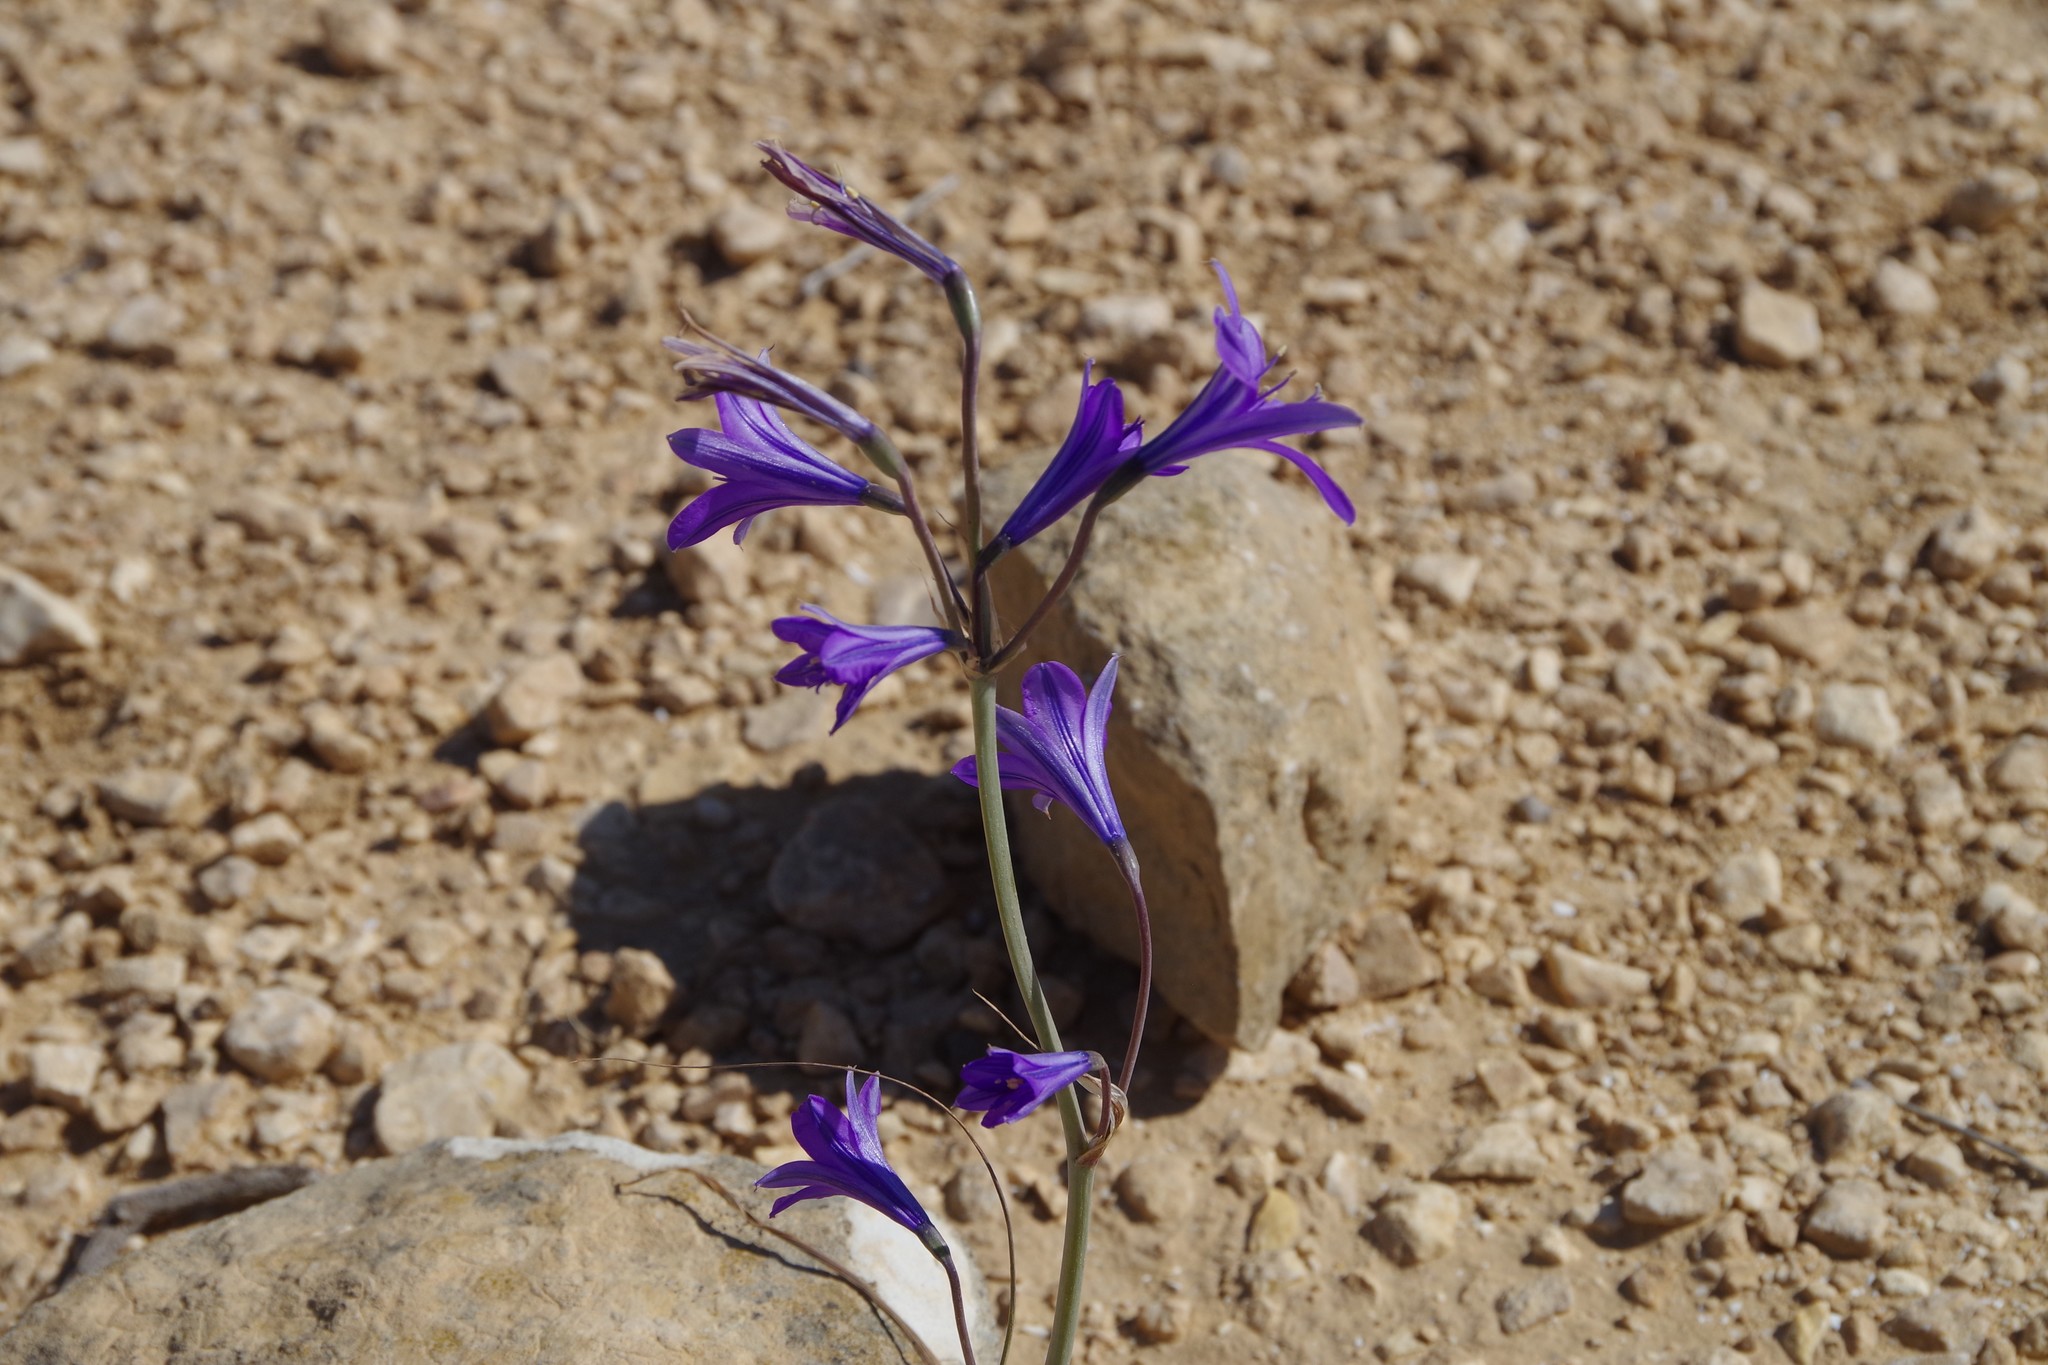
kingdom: Plantae
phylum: Tracheophyta
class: Liliopsida
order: Asparagales
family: Ixioliriaceae
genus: Ixiolirion
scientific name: Ixiolirion tataricum
